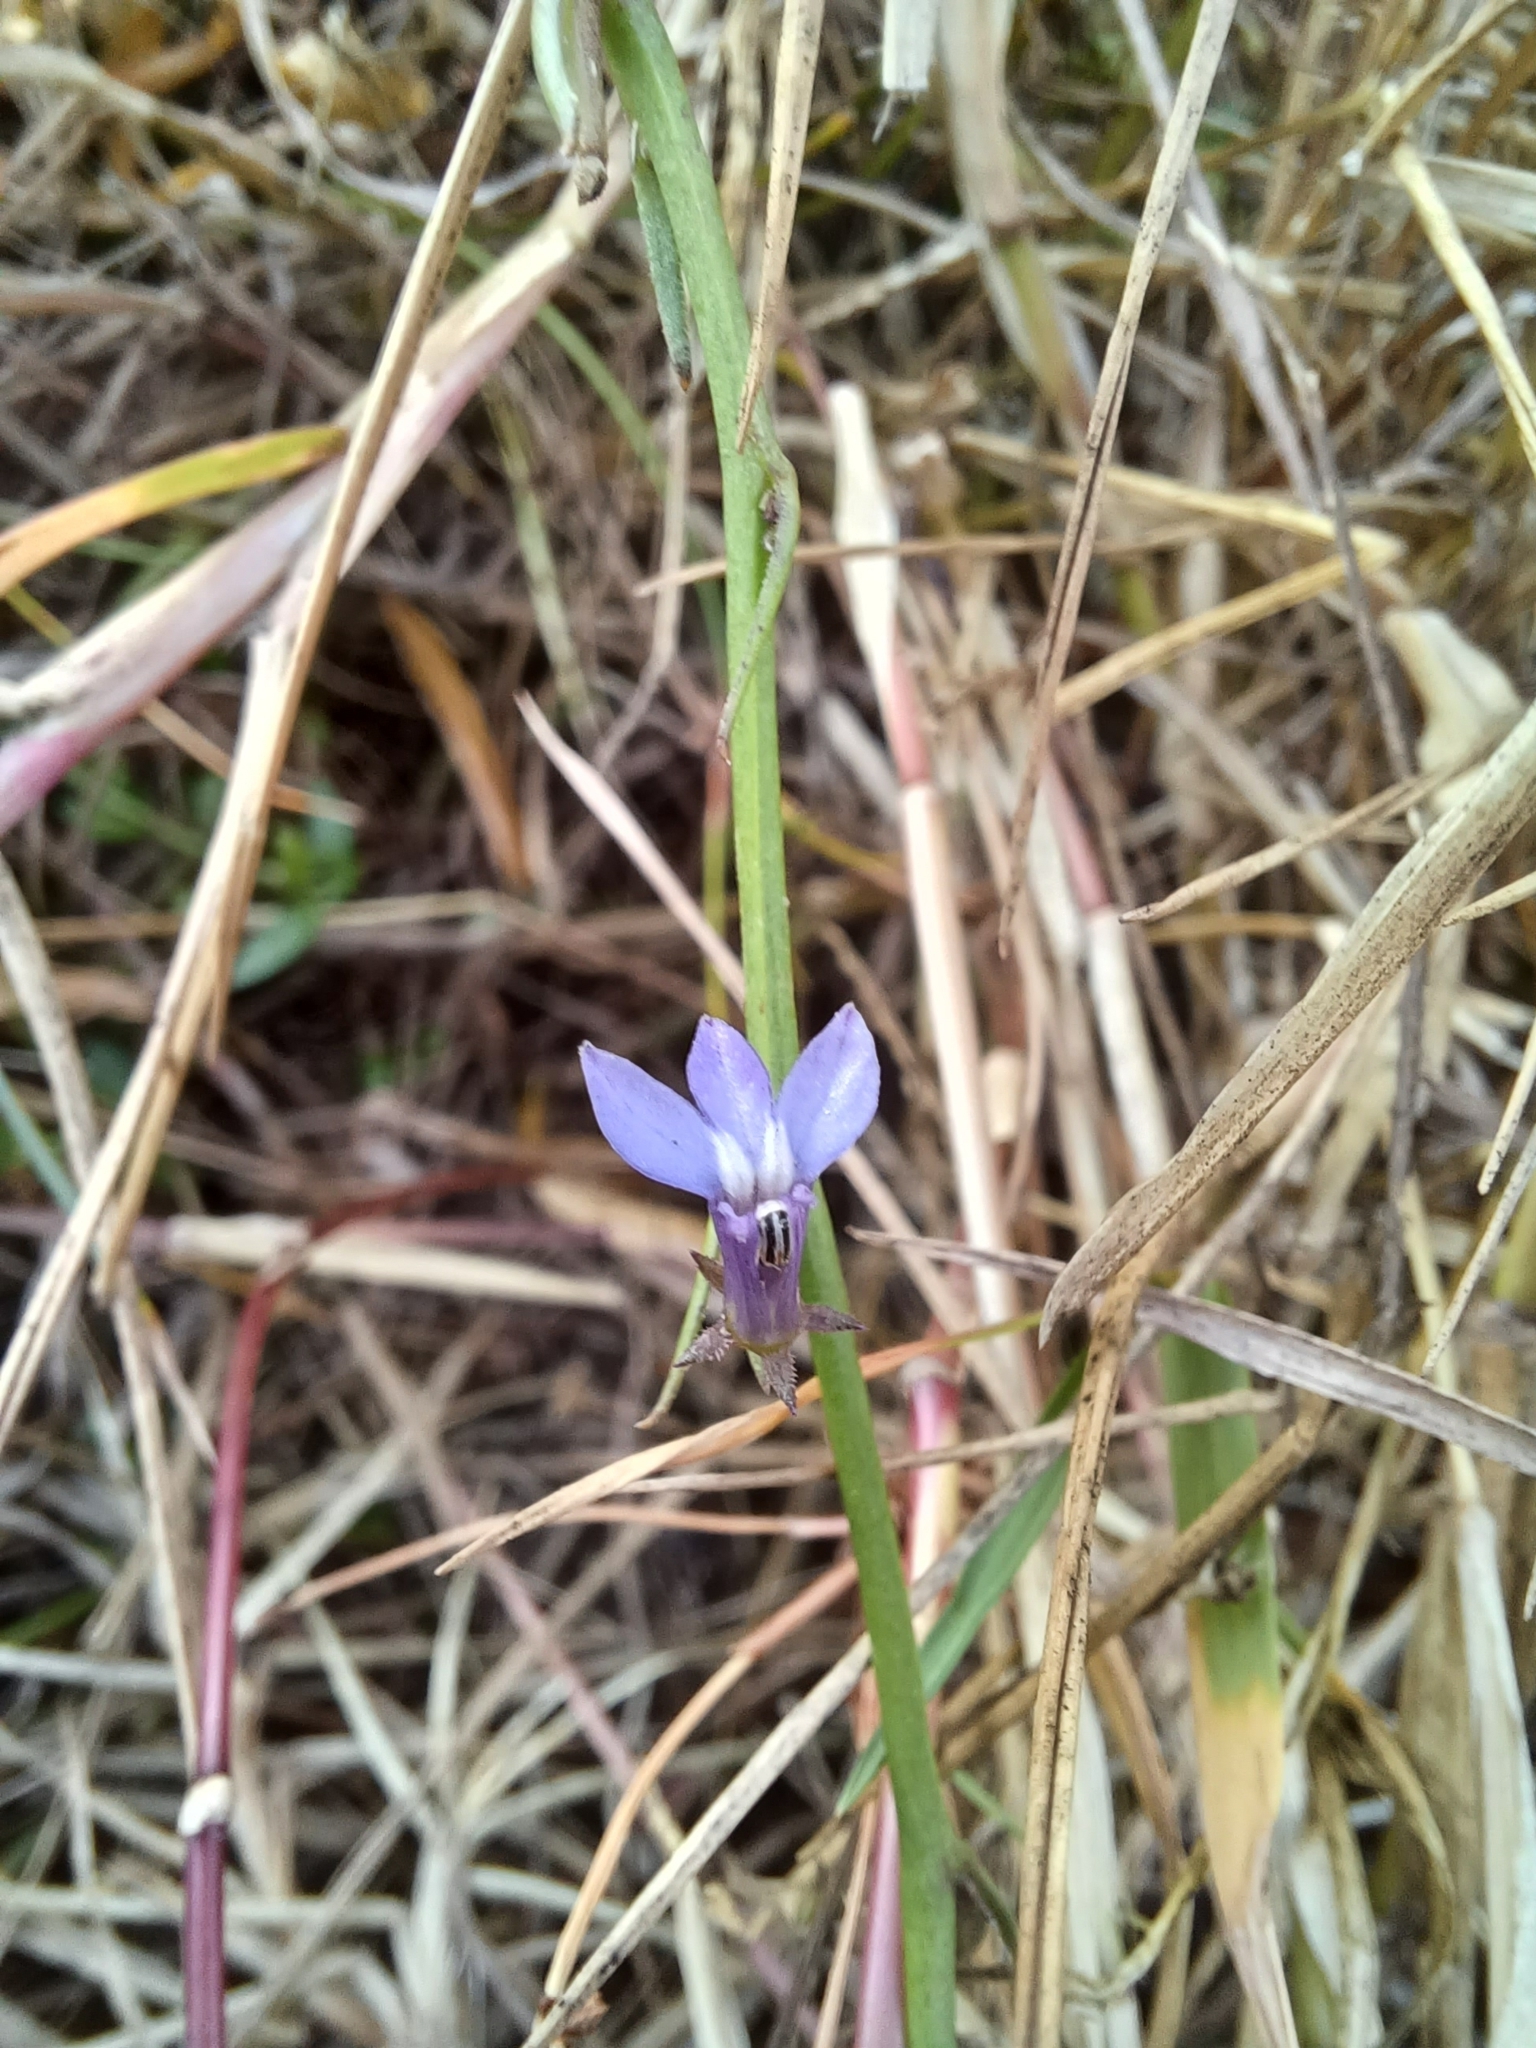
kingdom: Plantae
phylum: Tracheophyta
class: Magnoliopsida
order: Asterales
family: Campanulaceae
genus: Grammatotheca
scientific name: Grammatotheca bergiana
